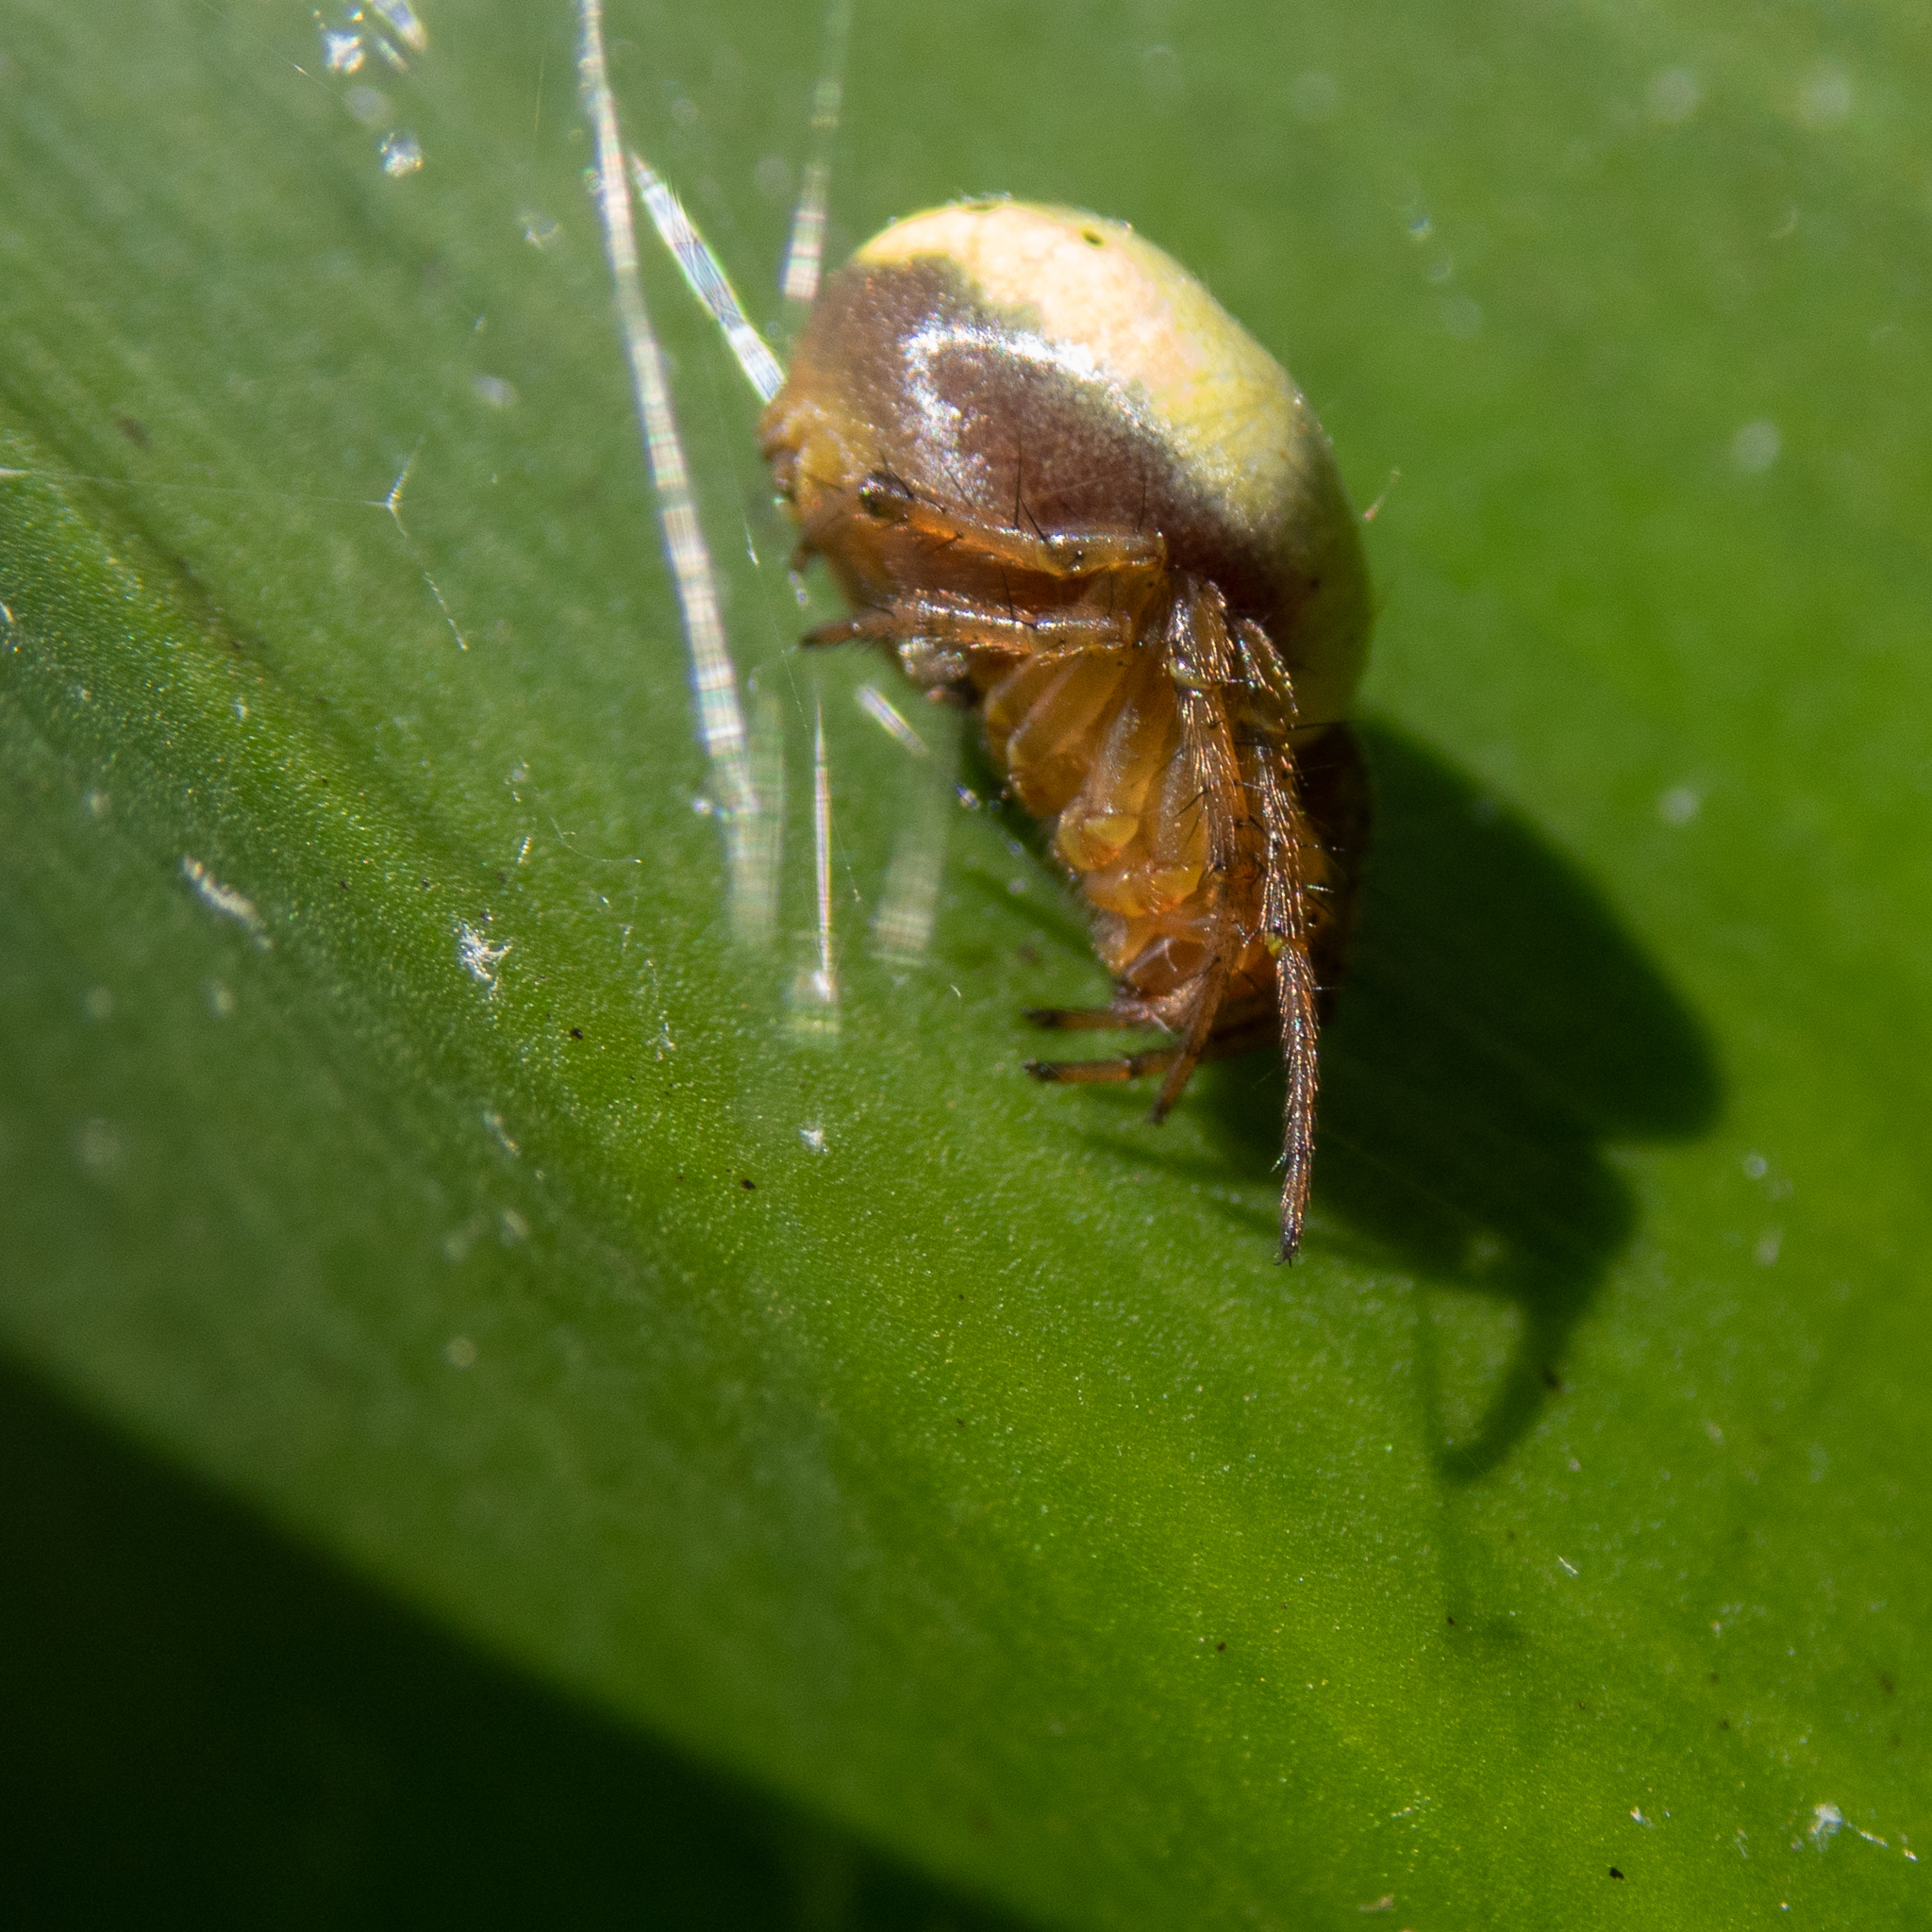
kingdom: Animalia
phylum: Arthropoda
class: Arachnida
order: Araneae
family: Araneidae
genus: Araniella
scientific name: Araniella displicata
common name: Sixspotted orb weaver
